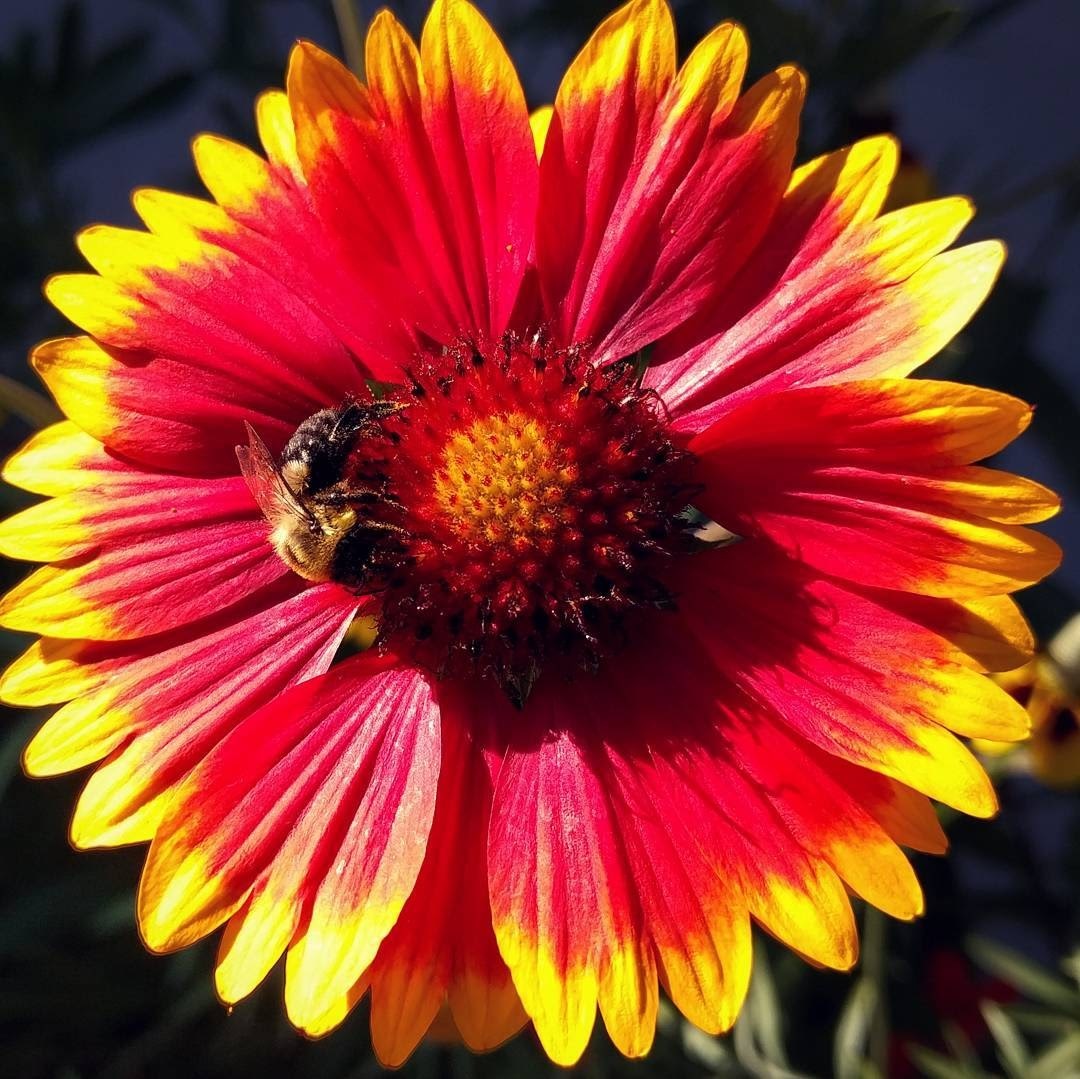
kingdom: Animalia
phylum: Arthropoda
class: Insecta
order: Hymenoptera
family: Apidae
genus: Bombus
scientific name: Bombus impatiens
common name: Common eastern bumble bee
